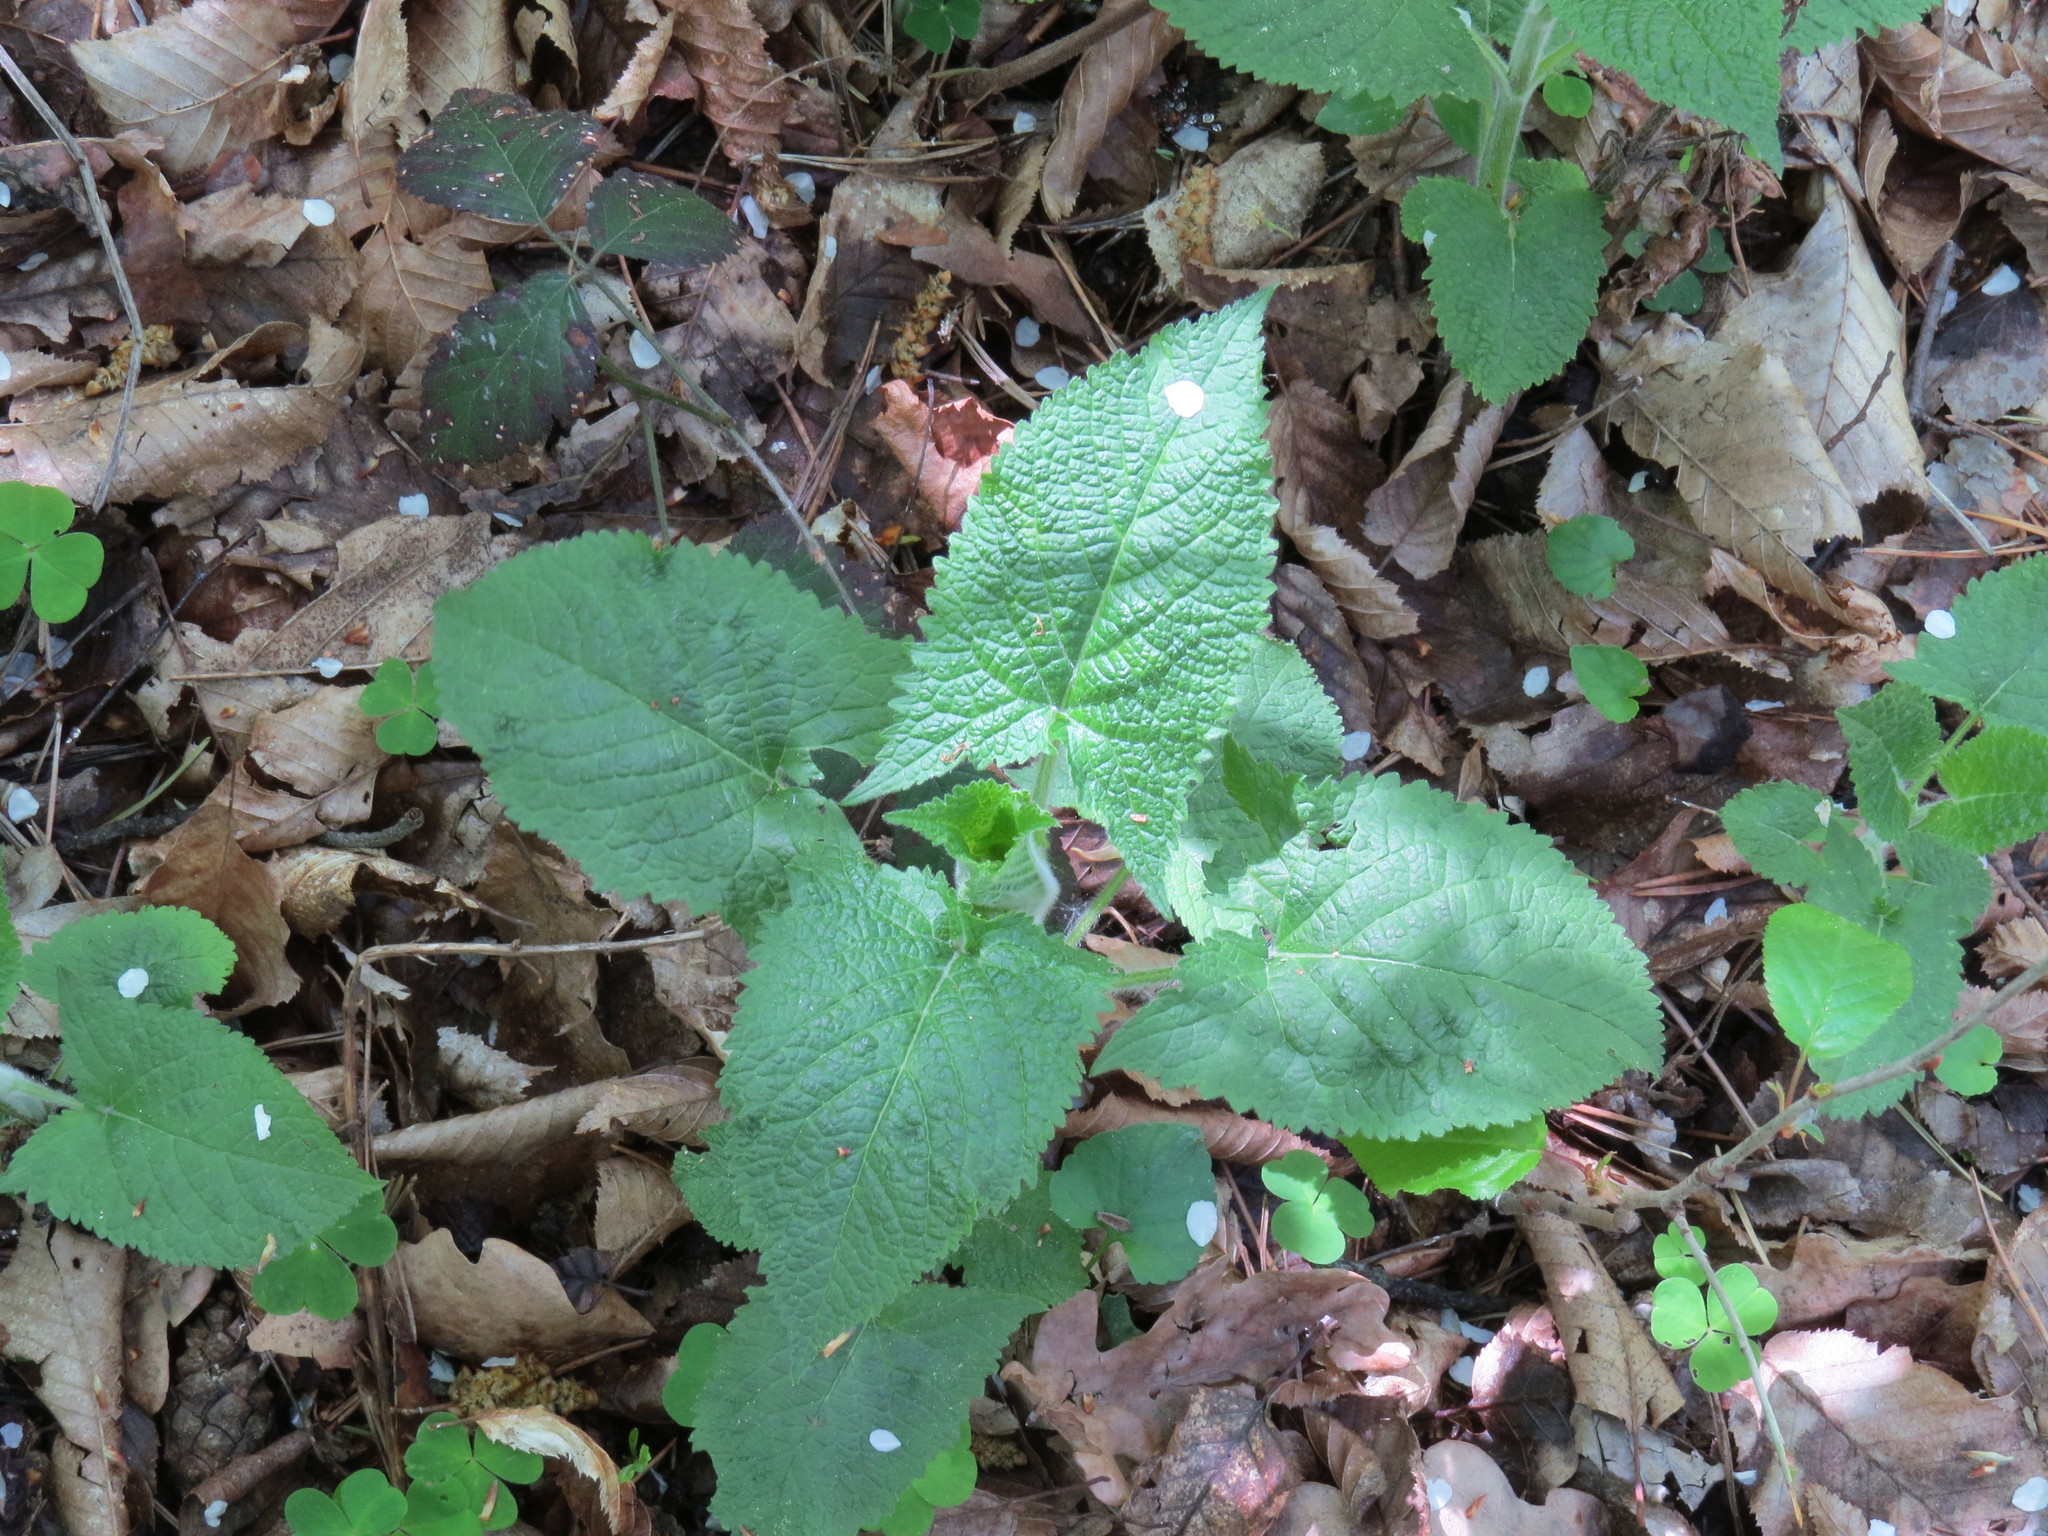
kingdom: Plantae
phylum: Tracheophyta
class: Magnoliopsida
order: Lamiales
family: Lamiaceae
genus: Salvia
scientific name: Salvia glutinosa
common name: Sticky clary
